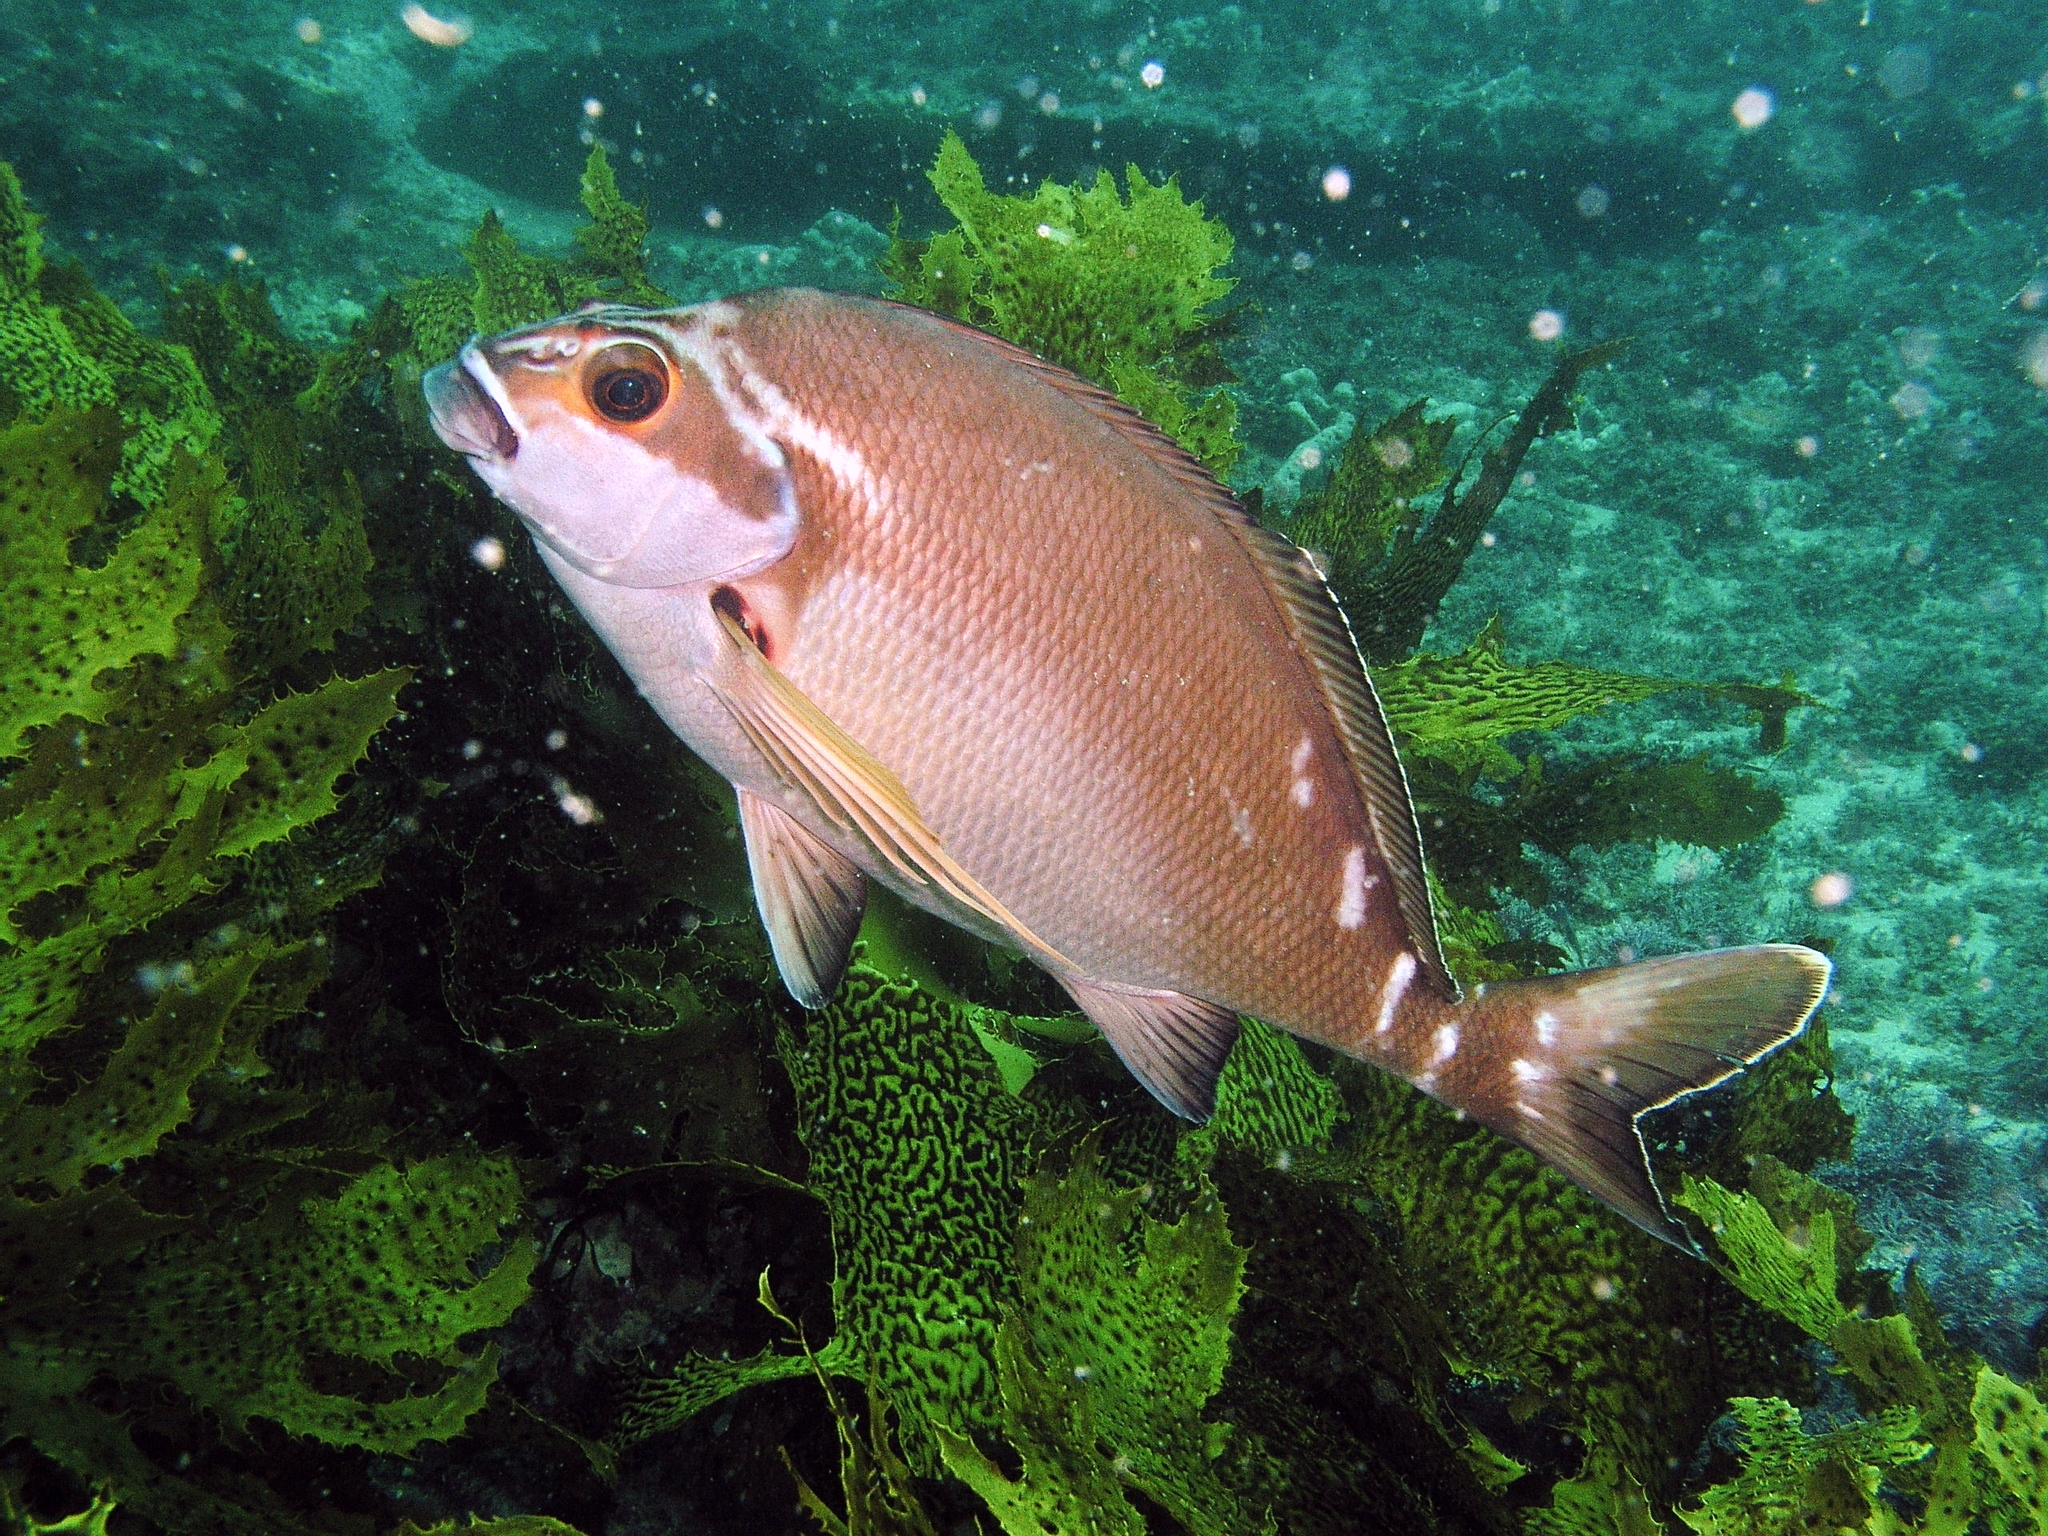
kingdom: Animalia
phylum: Chordata
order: Perciformes
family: Latridae
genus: Morwong
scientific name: Morwong fuscus
